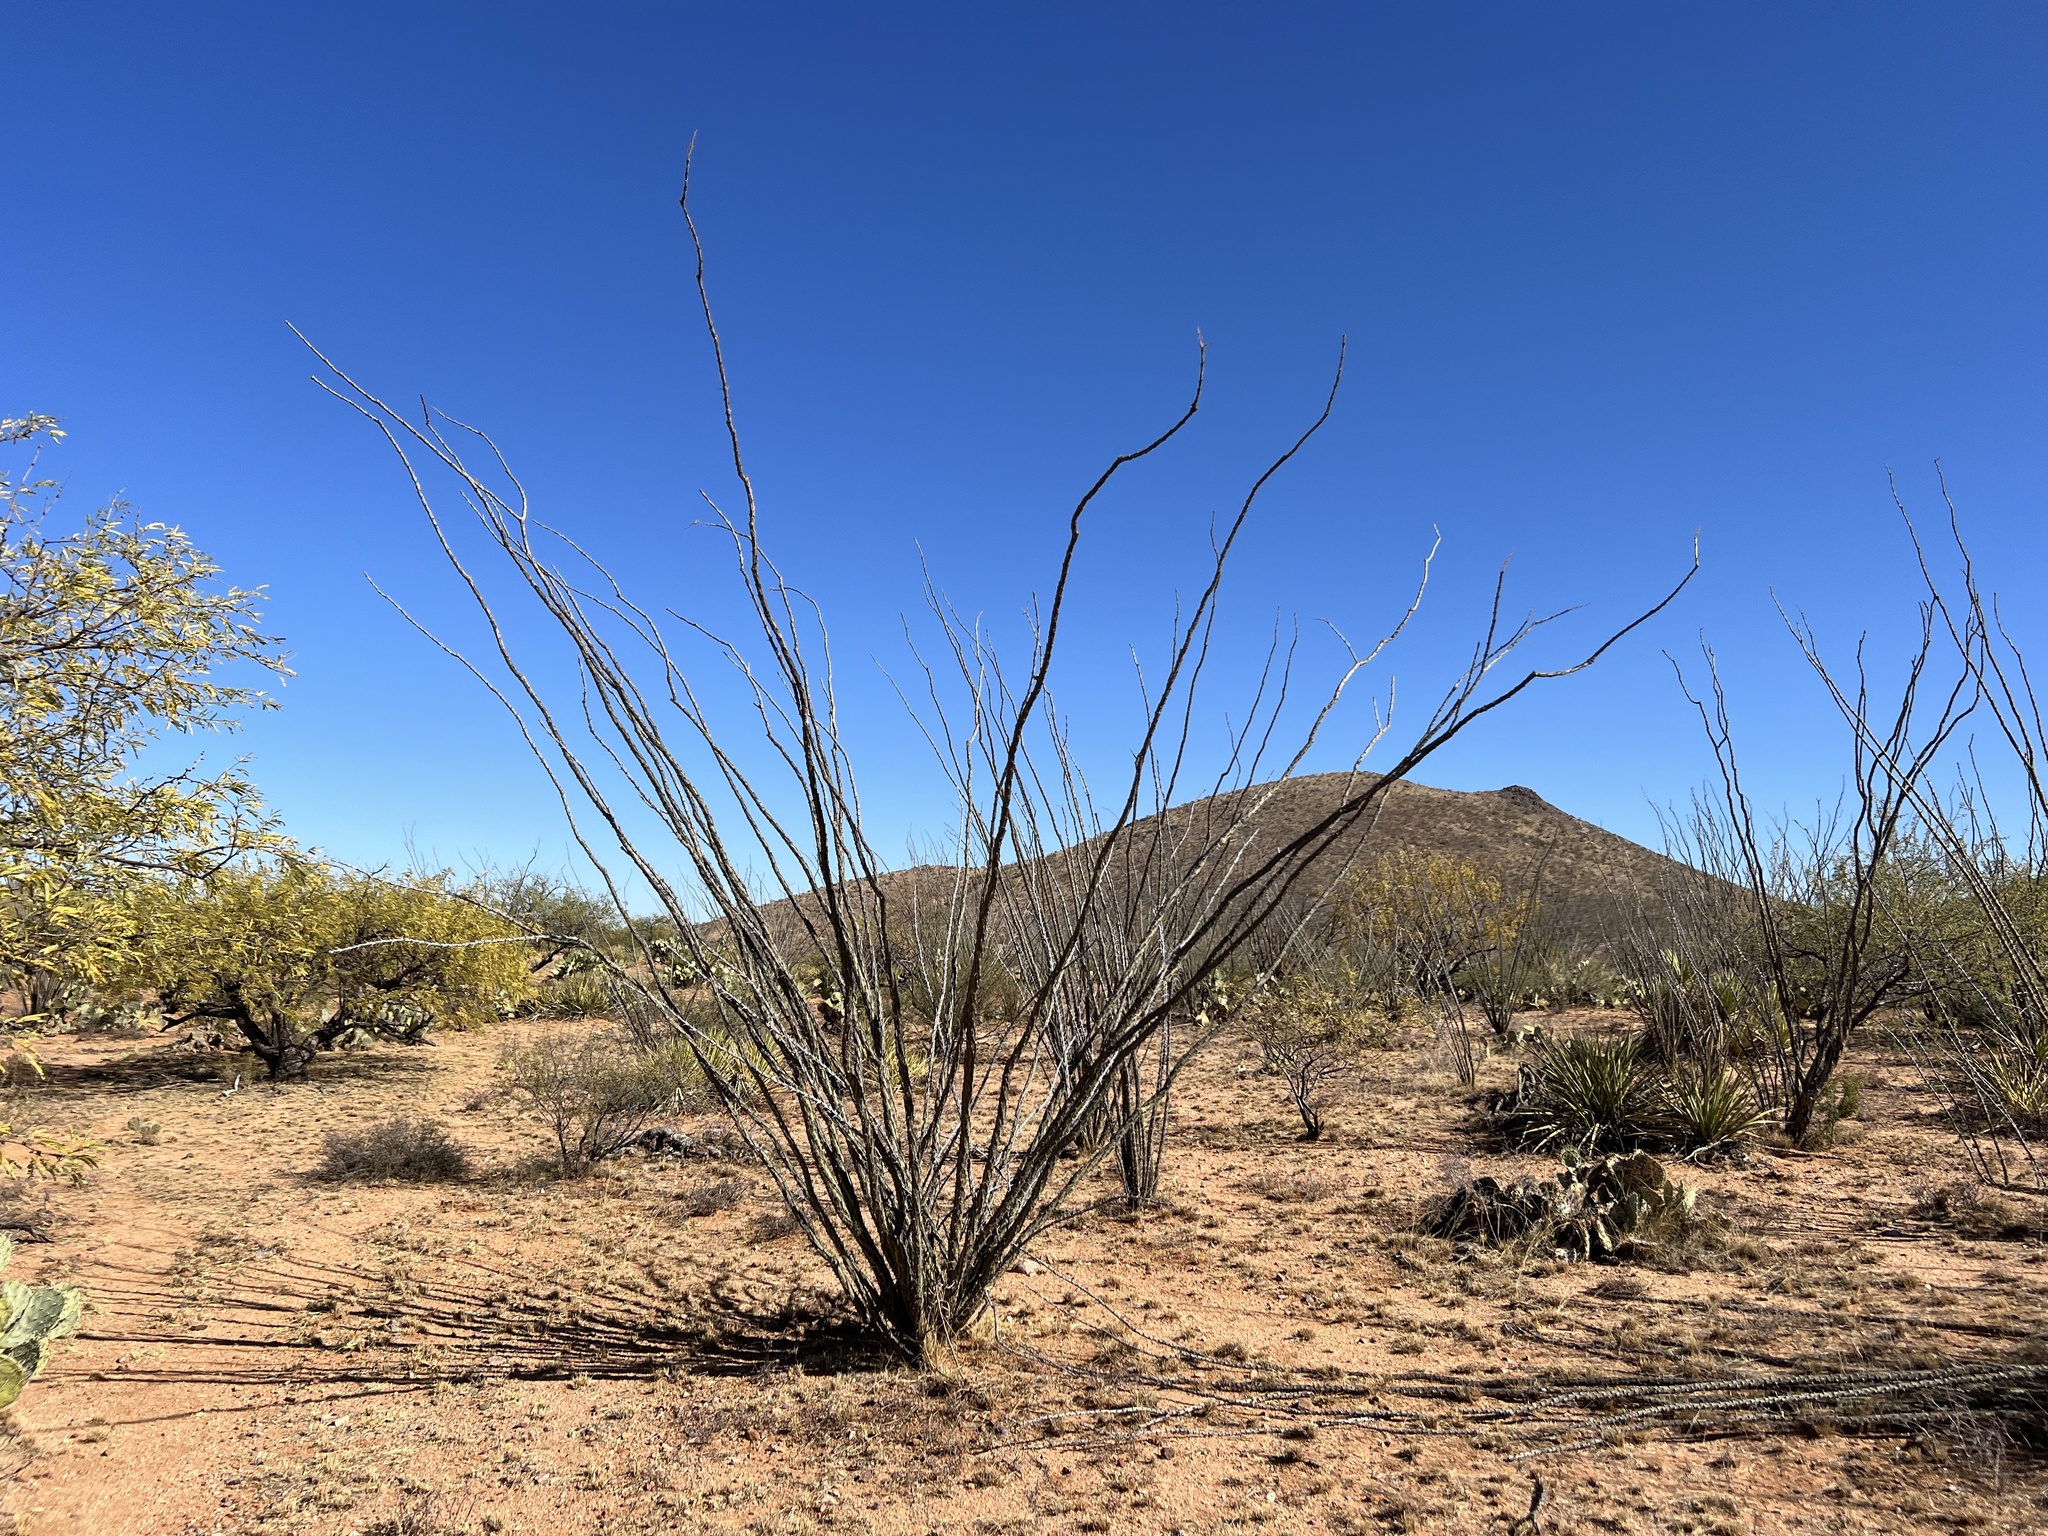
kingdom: Plantae
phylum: Tracheophyta
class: Magnoliopsida
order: Ericales
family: Fouquieriaceae
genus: Fouquieria
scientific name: Fouquieria splendens
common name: Vine-cactus
